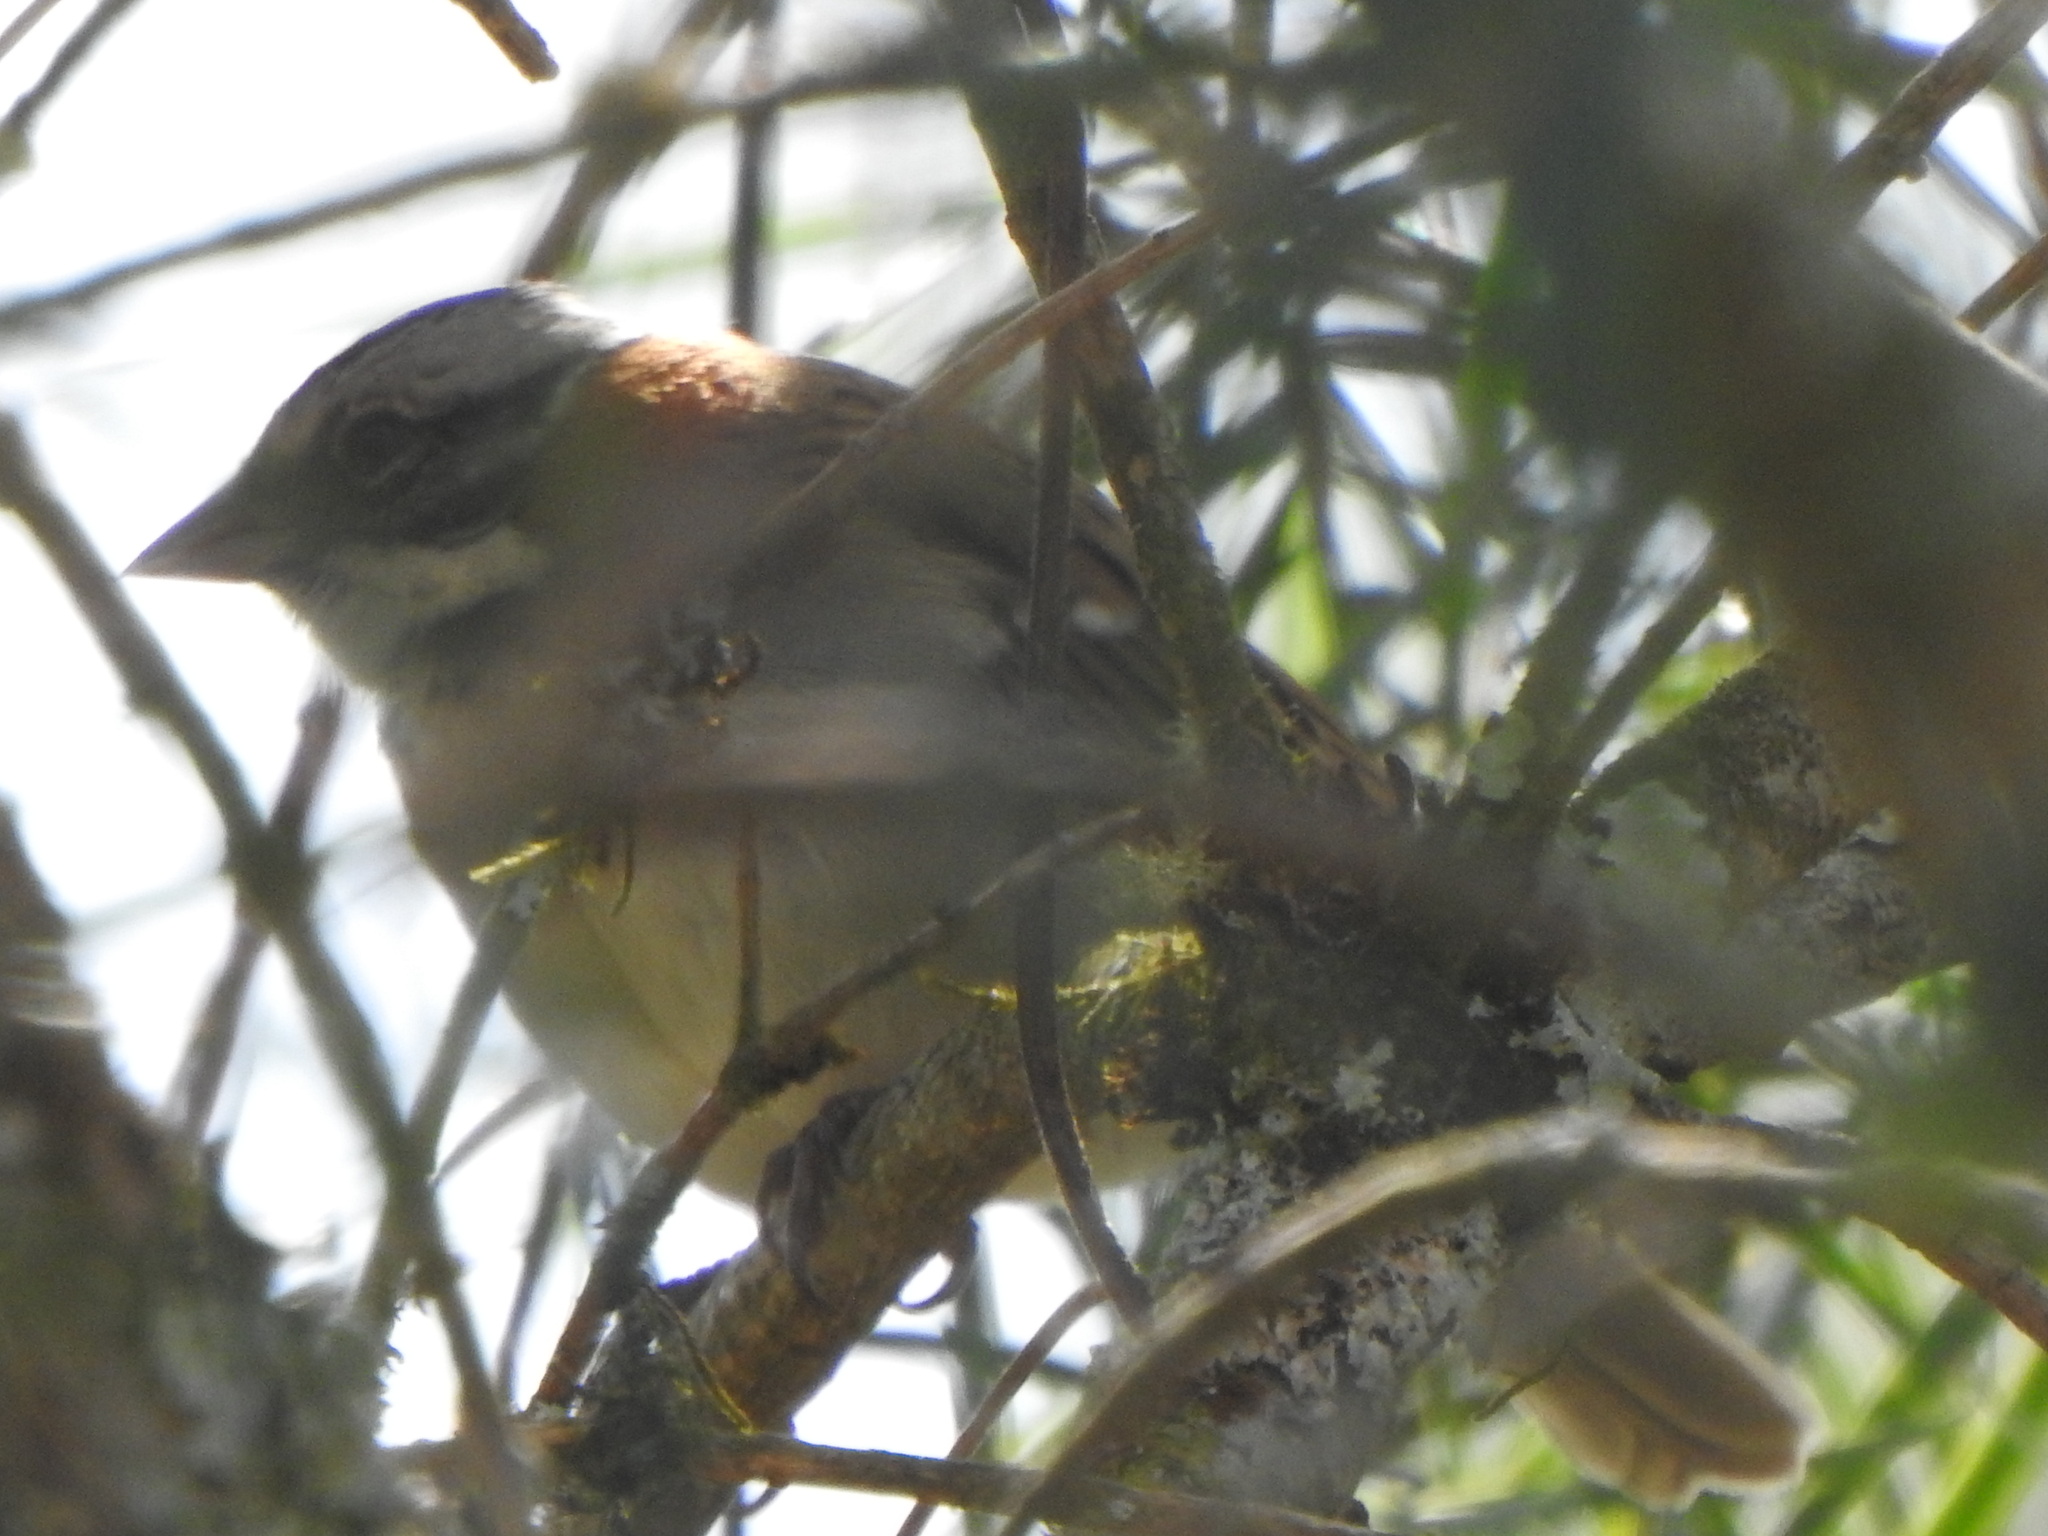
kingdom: Animalia
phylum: Chordata
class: Aves
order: Passeriformes
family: Passerellidae
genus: Zonotrichia
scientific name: Zonotrichia capensis
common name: Rufous-collared sparrow
